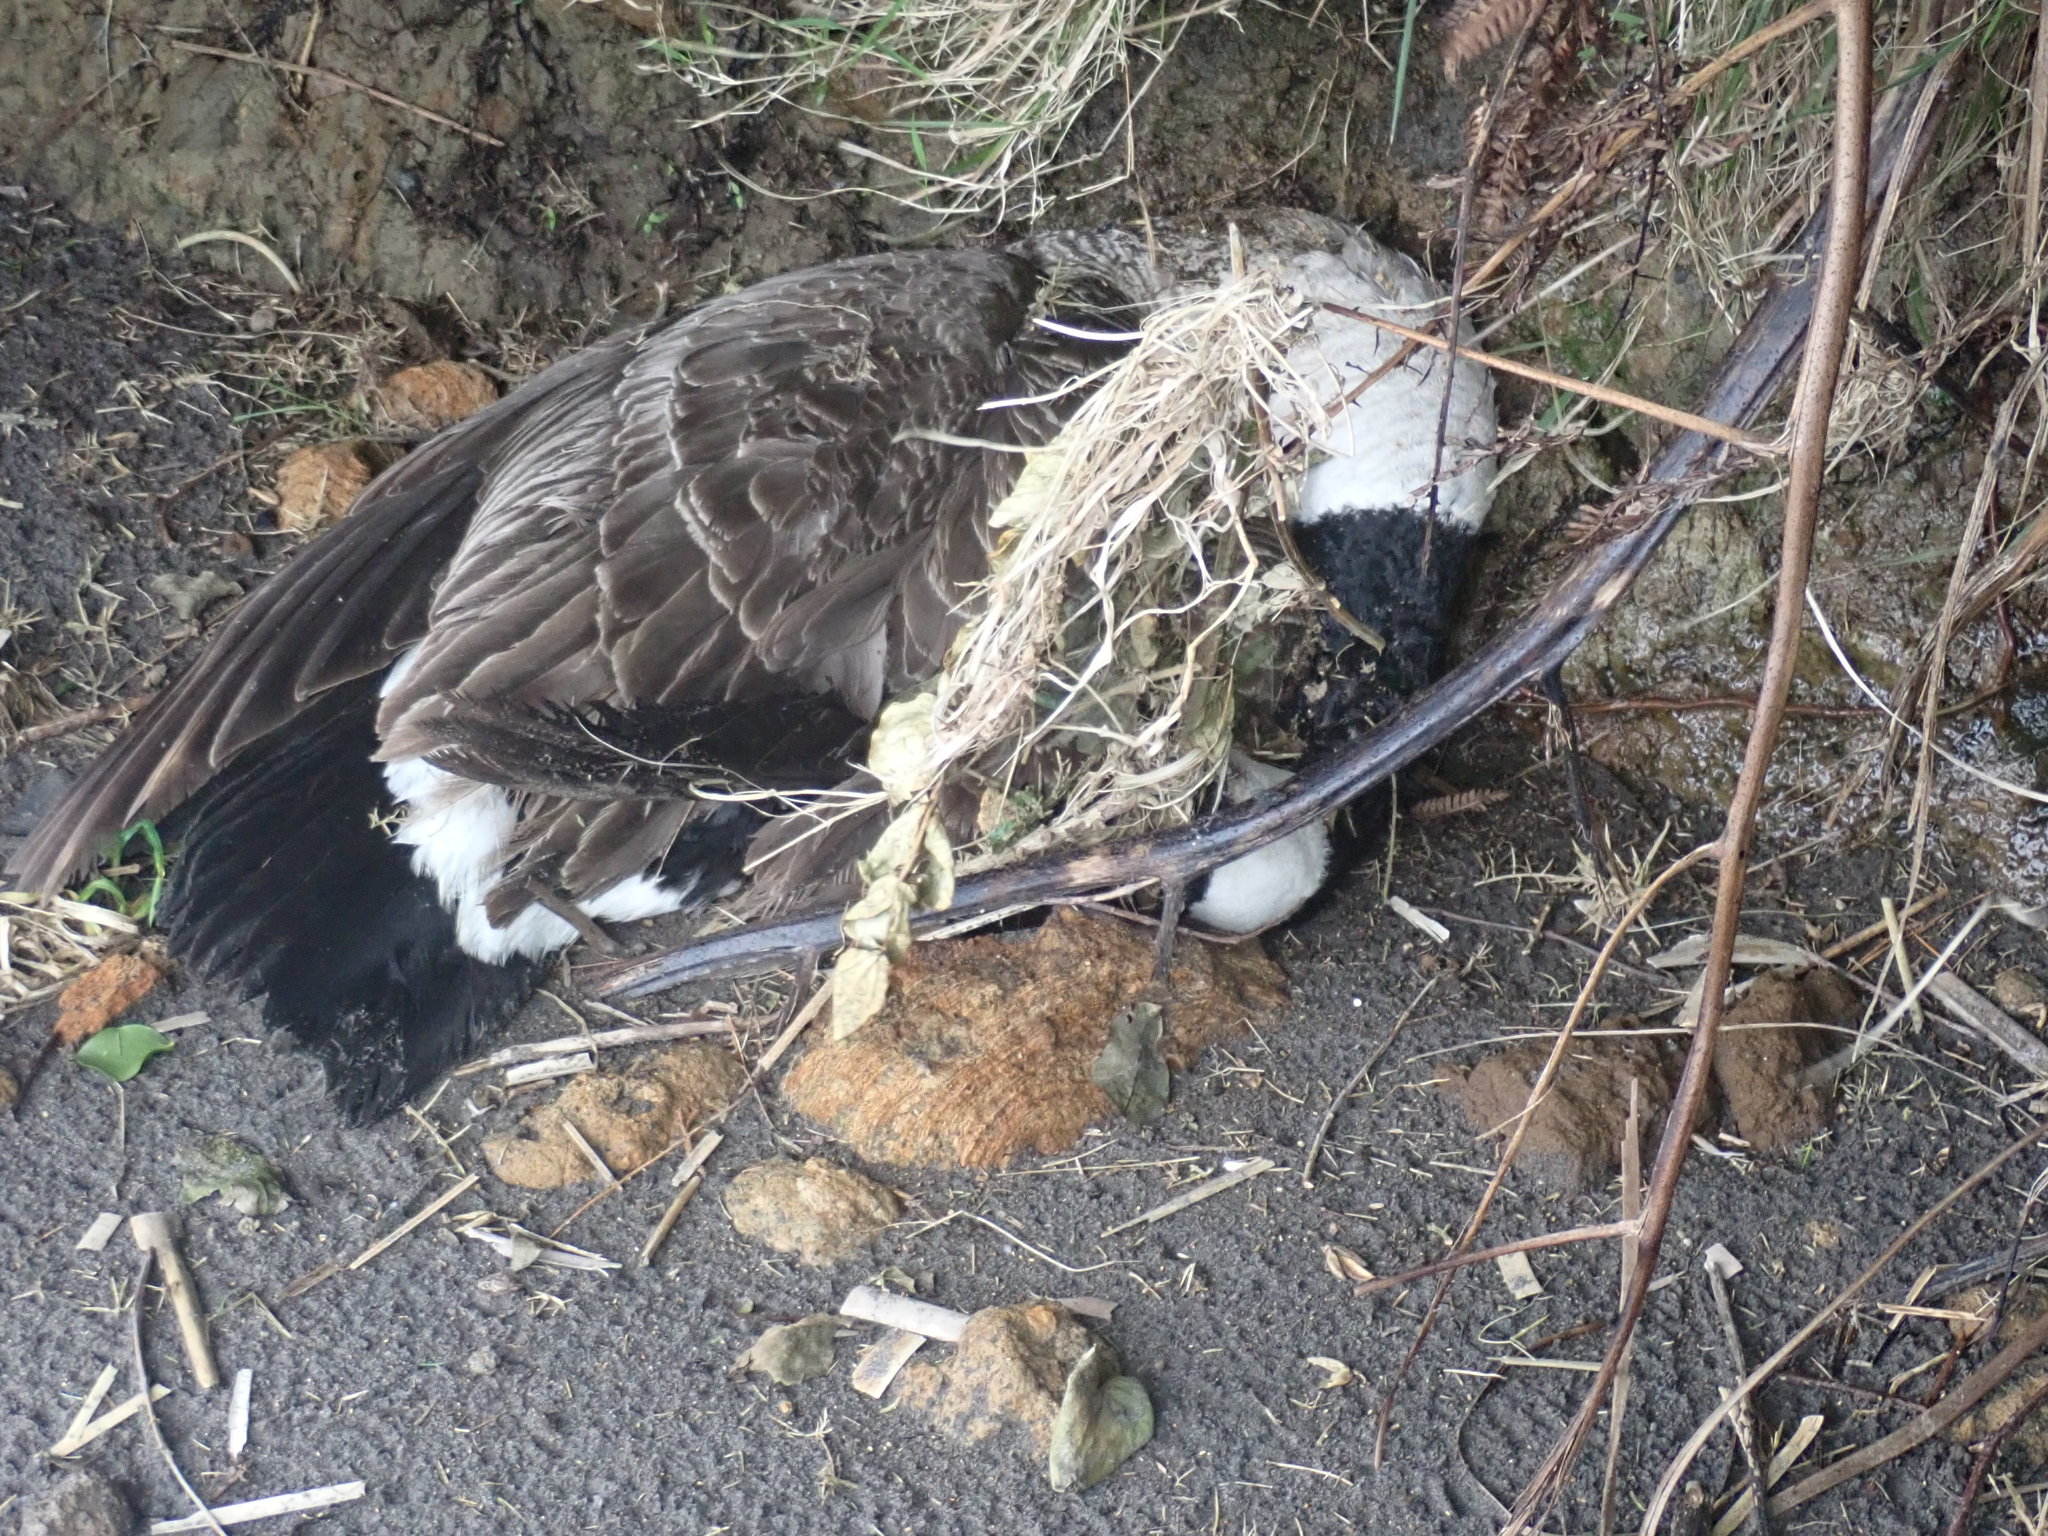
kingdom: Animalia
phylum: Chordata
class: Aves
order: Anseriformes
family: Anatidae
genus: Branta
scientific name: Branta canadensis
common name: Canada goose
